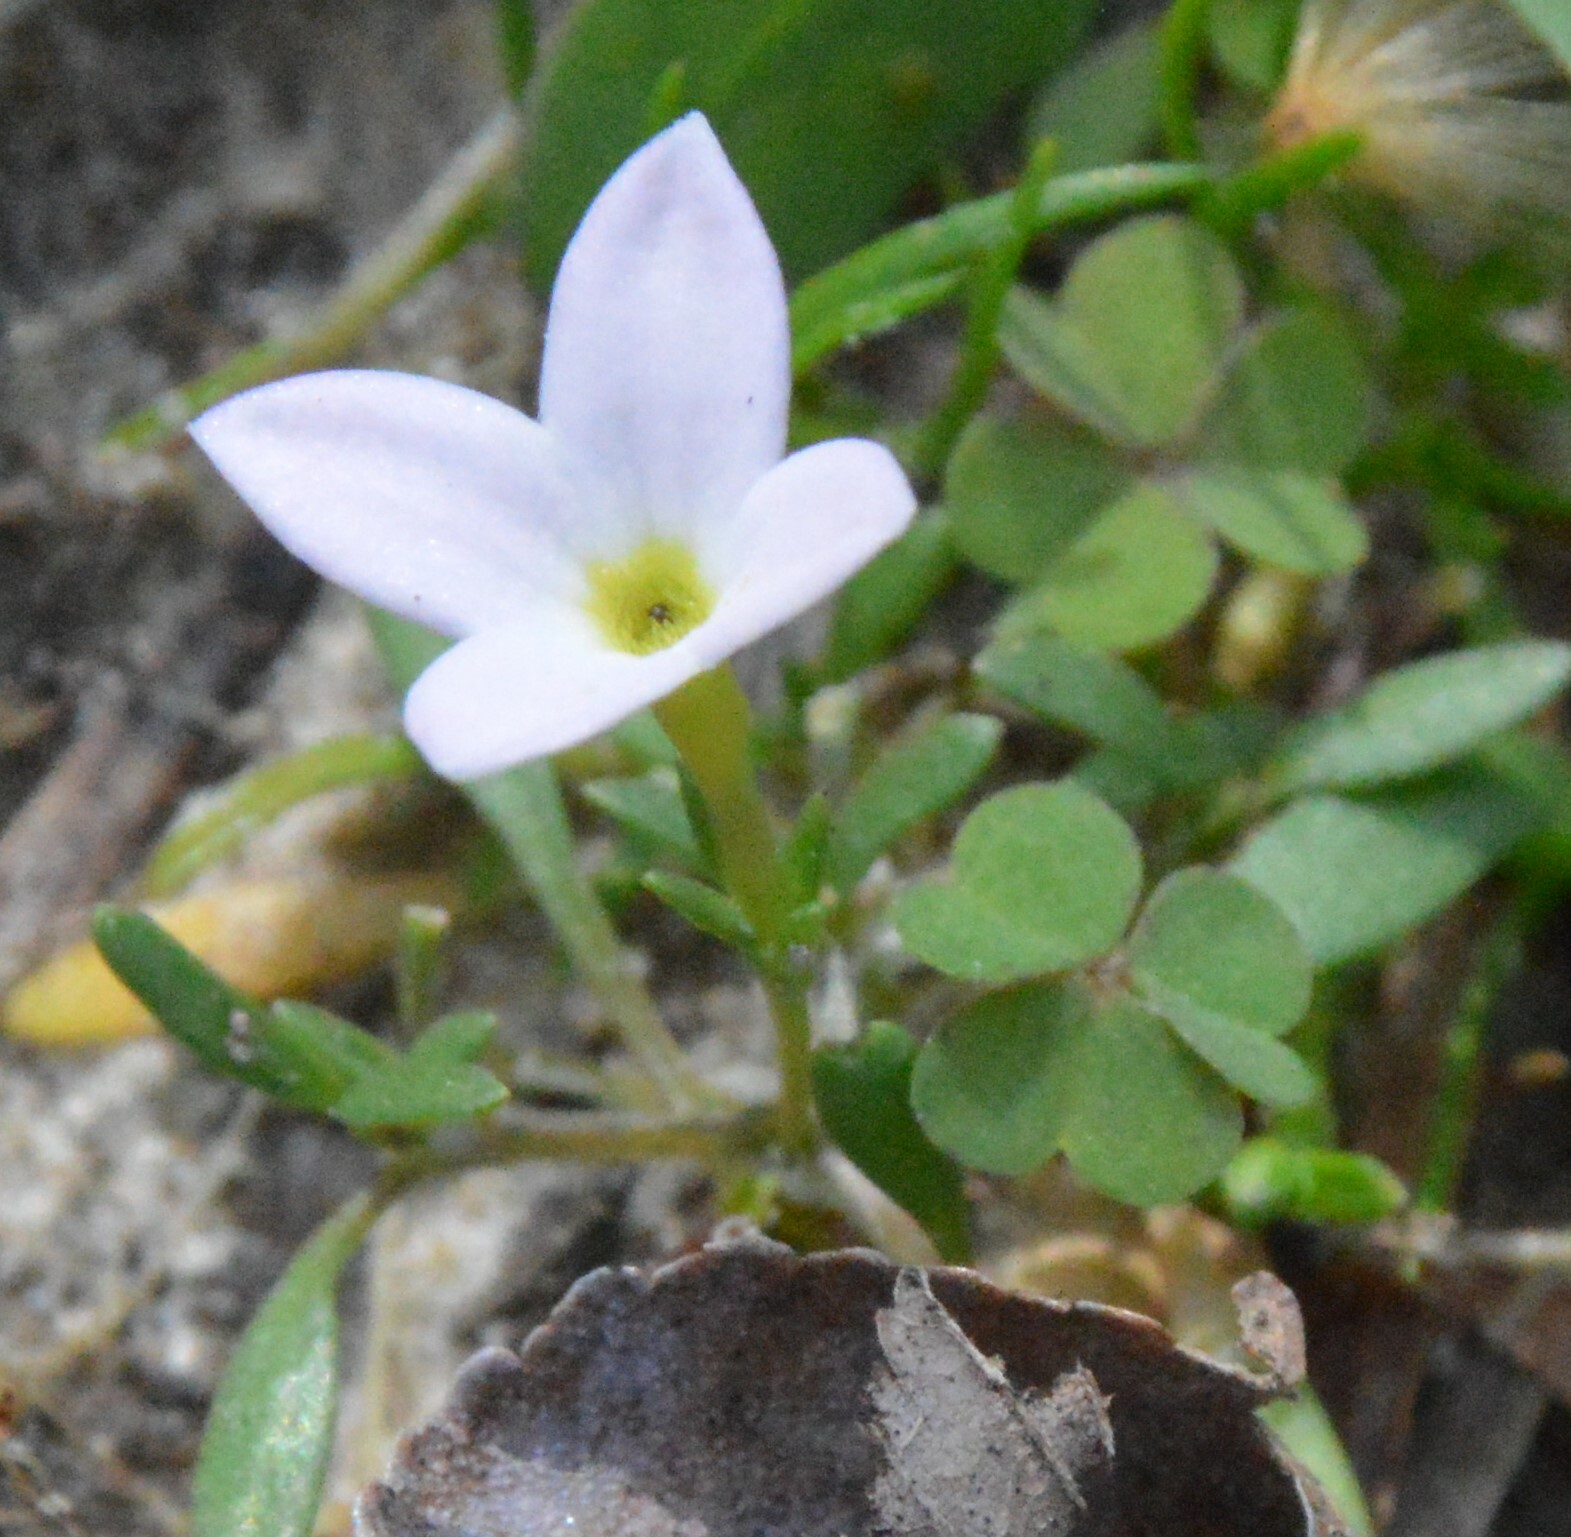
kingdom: Plantae
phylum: Tracheophyta
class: Magnoliopsida
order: Gentianales
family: Rubiaceae
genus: Houstonia
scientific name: Houstonia rosea
